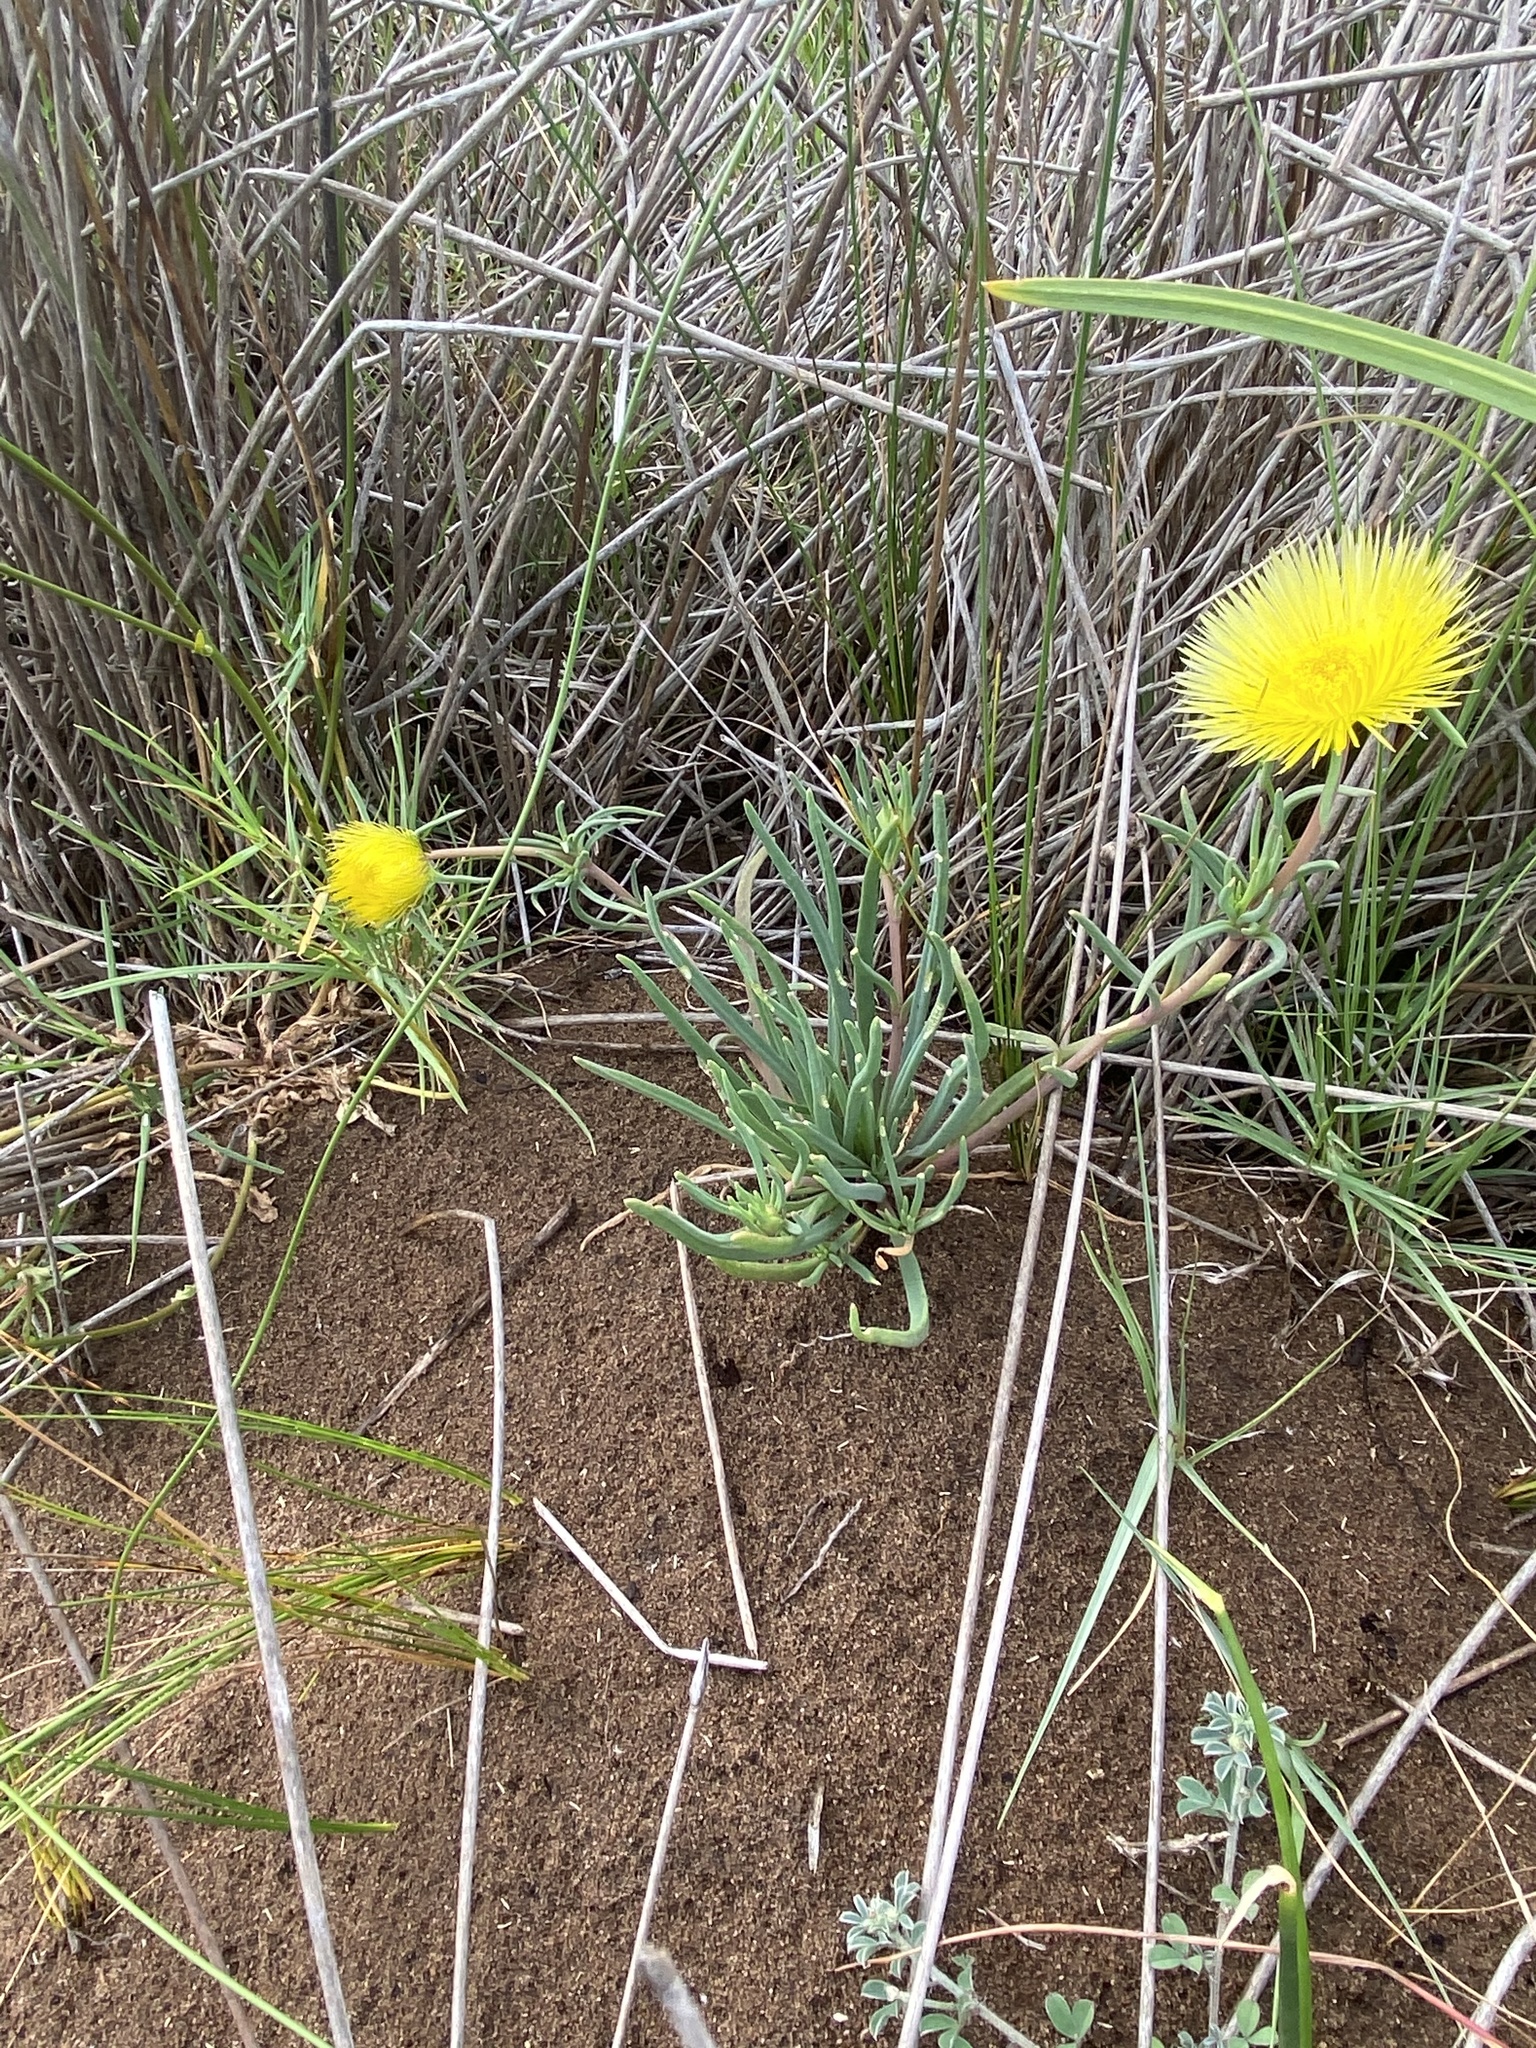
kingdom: Plantae
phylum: Tracheophyta
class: Magnoliopsida
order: Caryophyllales
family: Aizoaceae
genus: Conicosia
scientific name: Conicosia pugioniformis
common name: Narrow-leaved iceplant
